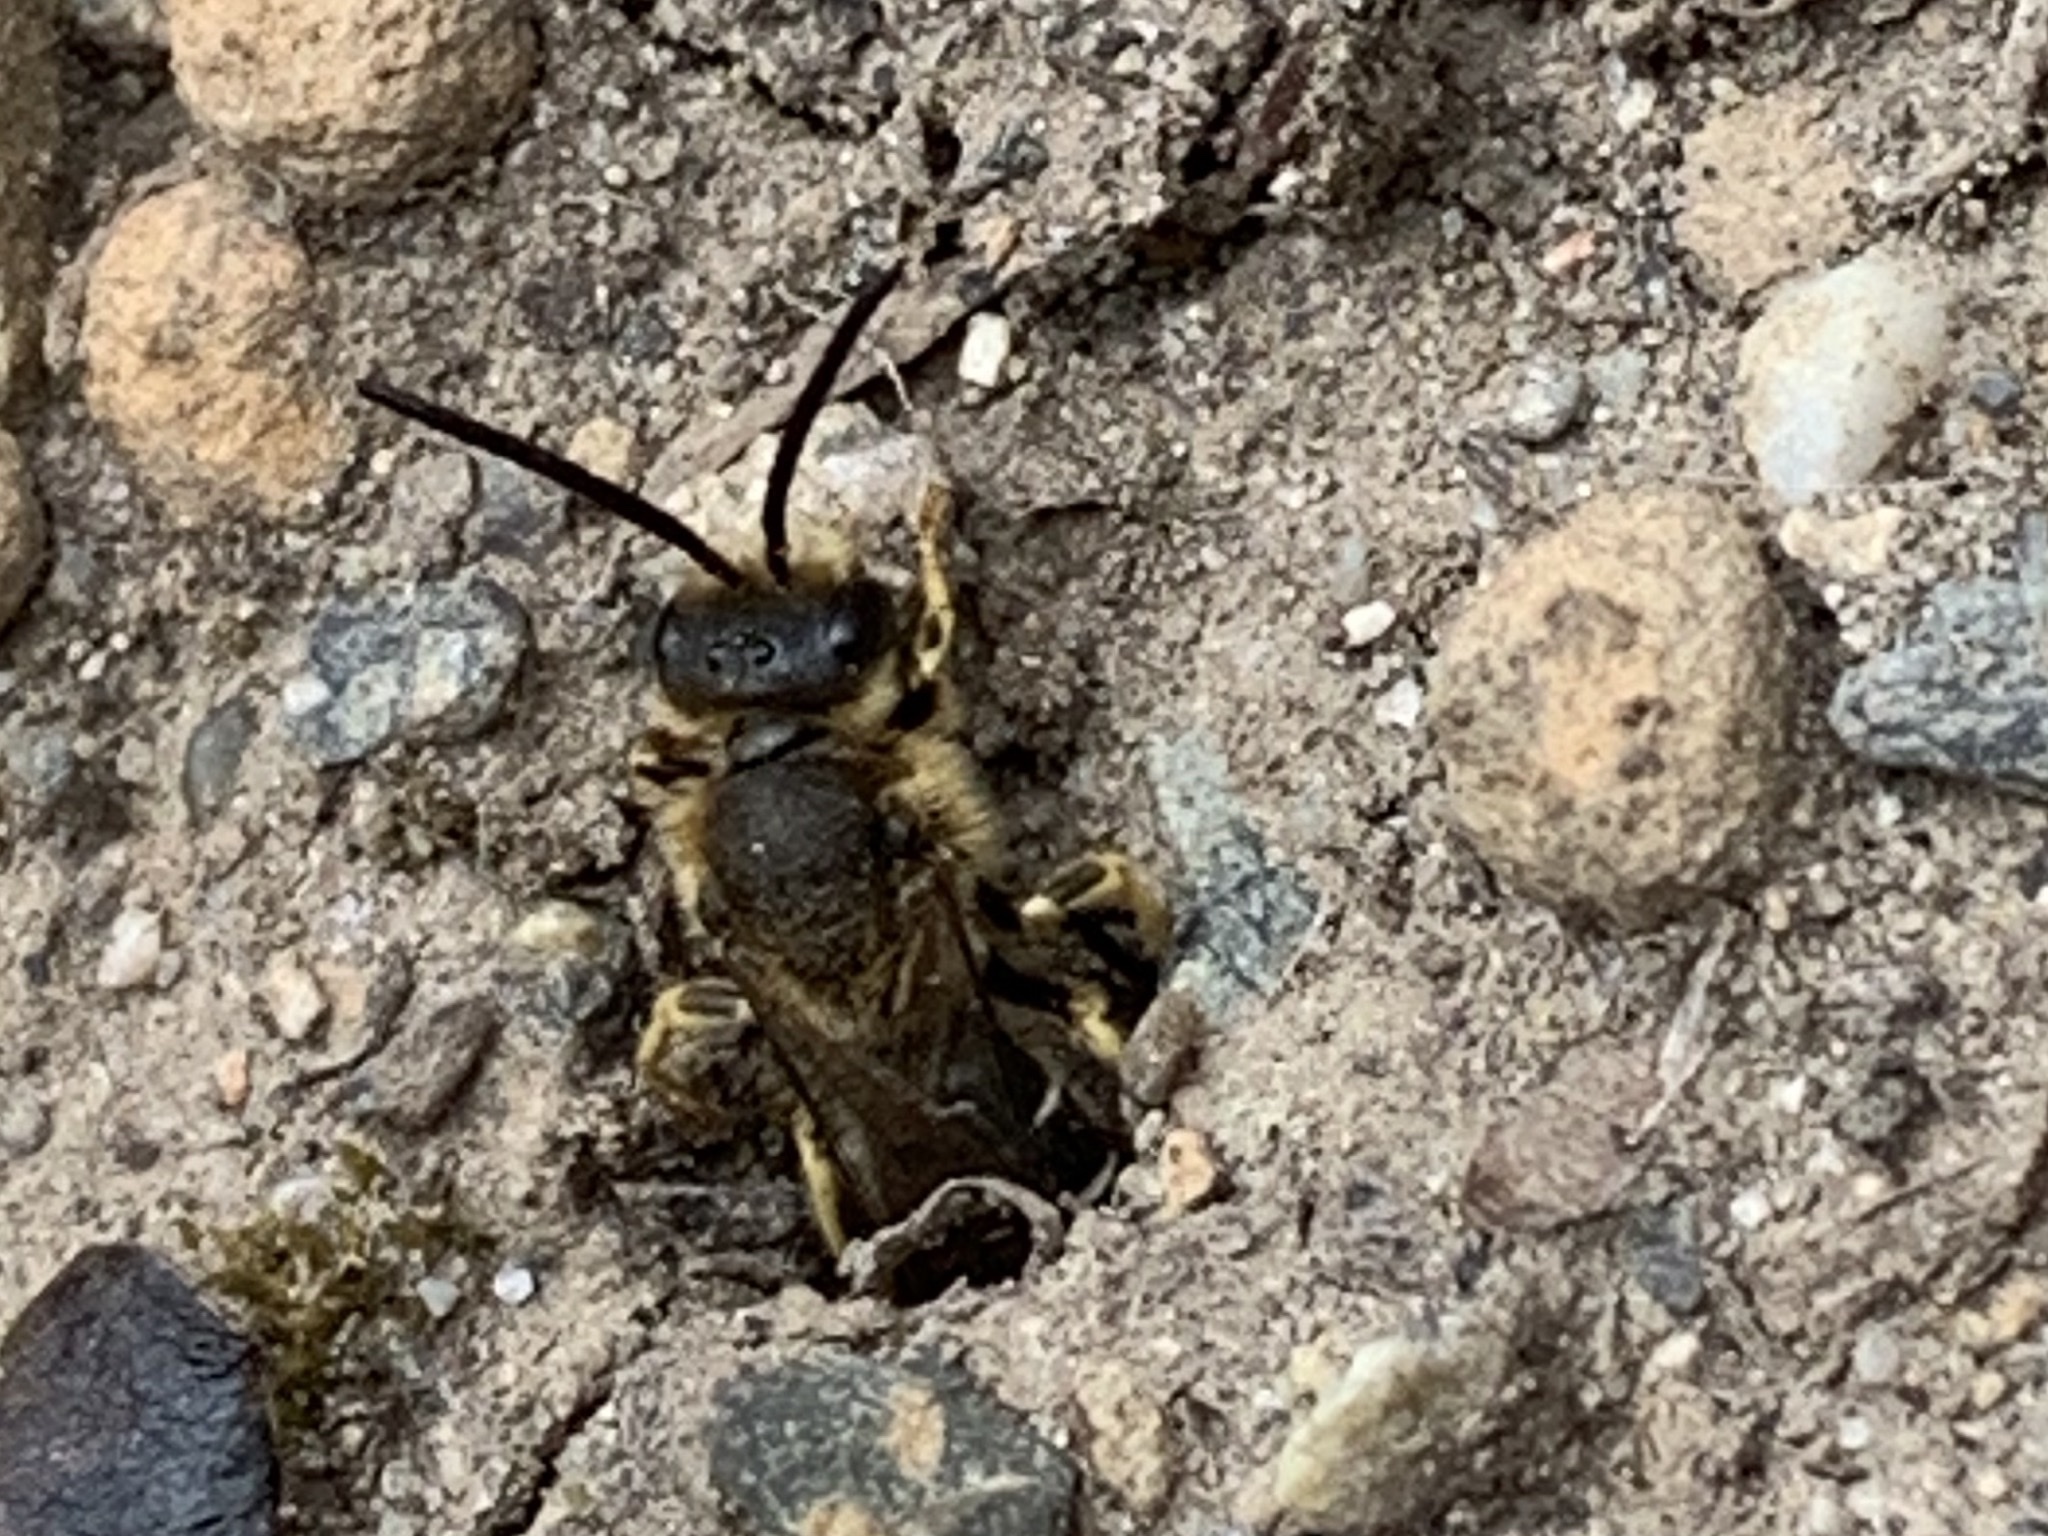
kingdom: Animalia
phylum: Arthropoda
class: Insecta
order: Hymenoptera
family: Halictidae
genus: Halictus
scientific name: Halictus rubicundus
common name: Orange-legged furrow bee
